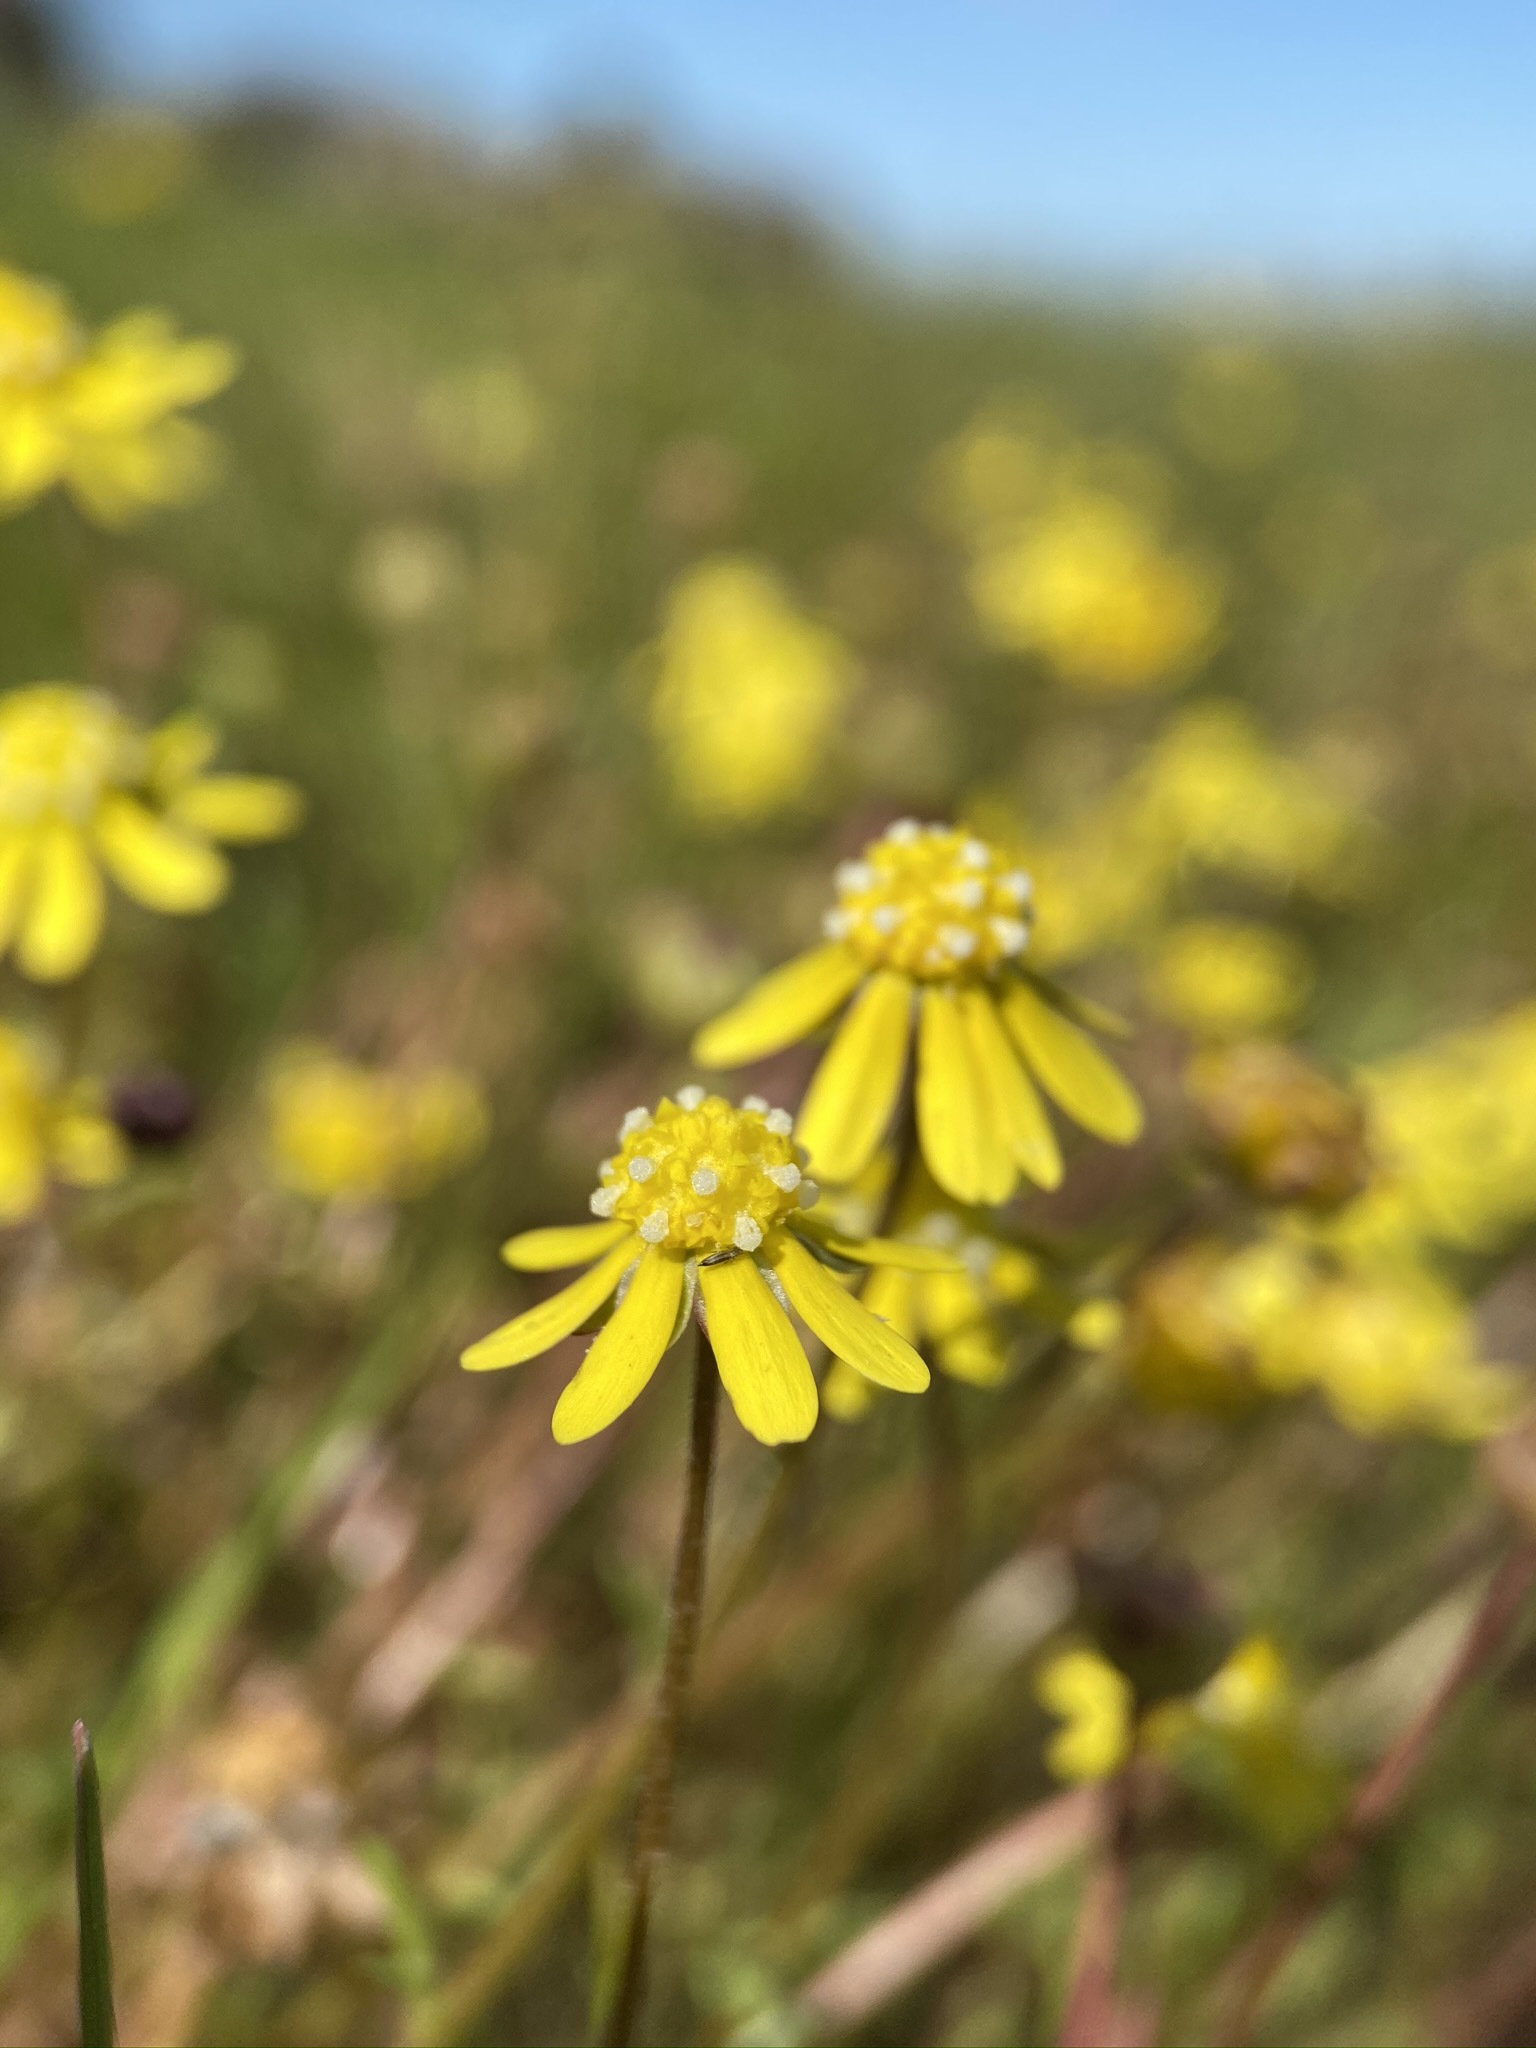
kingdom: Plantae
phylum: Tracheophyta
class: Magnoliopsida
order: Asterales
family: Asteraceae
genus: Blennosperma
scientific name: Blennosperma nanum
